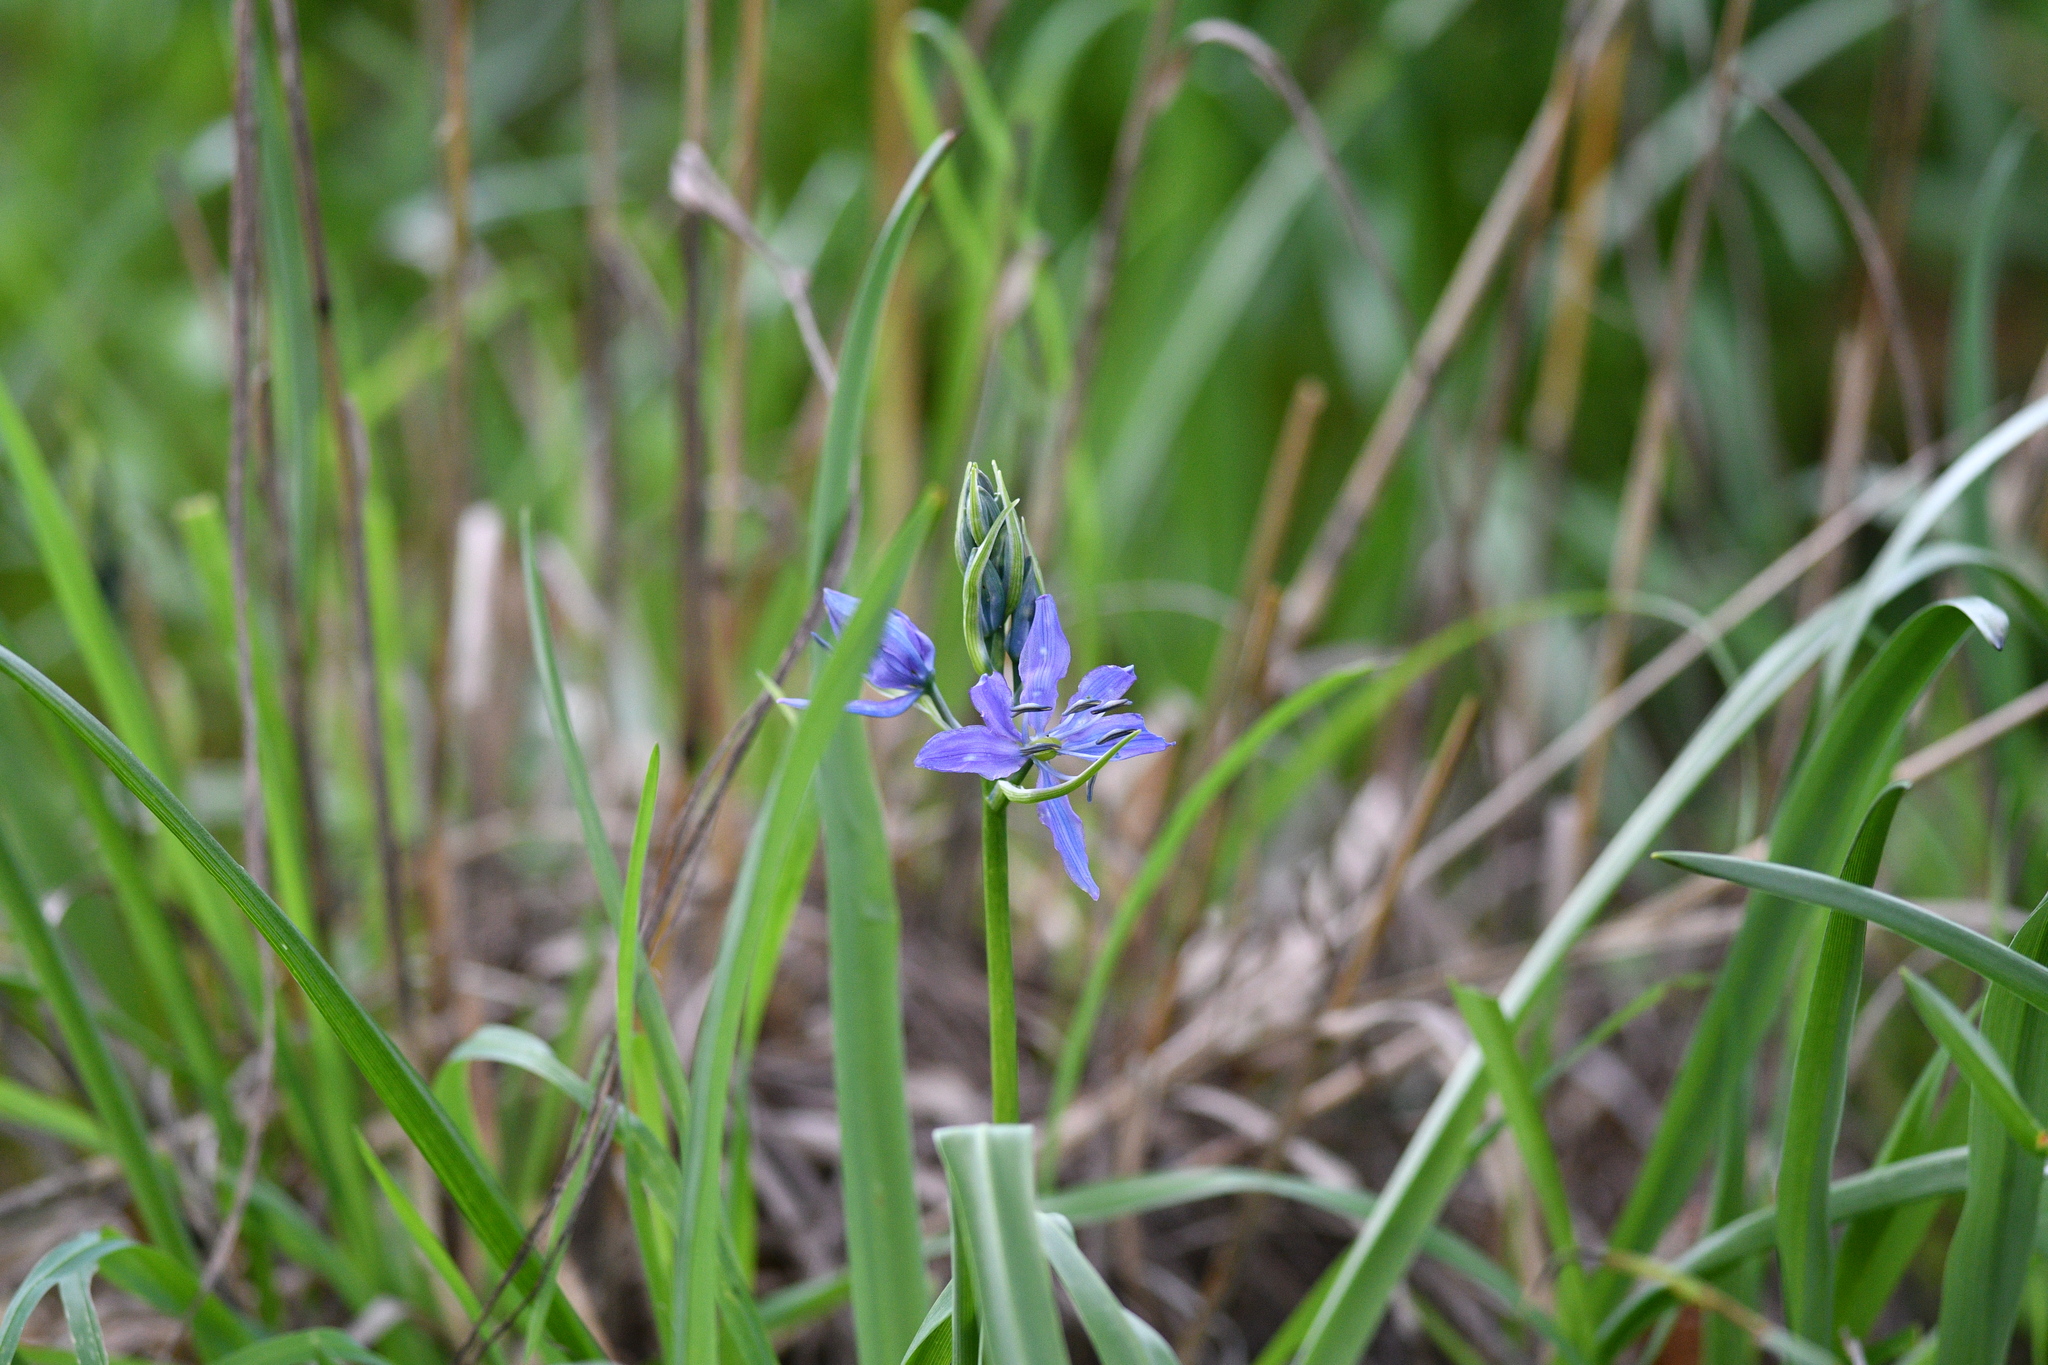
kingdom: Plantae
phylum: Tracheophyta
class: Liliopsida
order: Asparagales
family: Asparagaceae
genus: Camassia
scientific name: Camassia quamash
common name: Common camas
